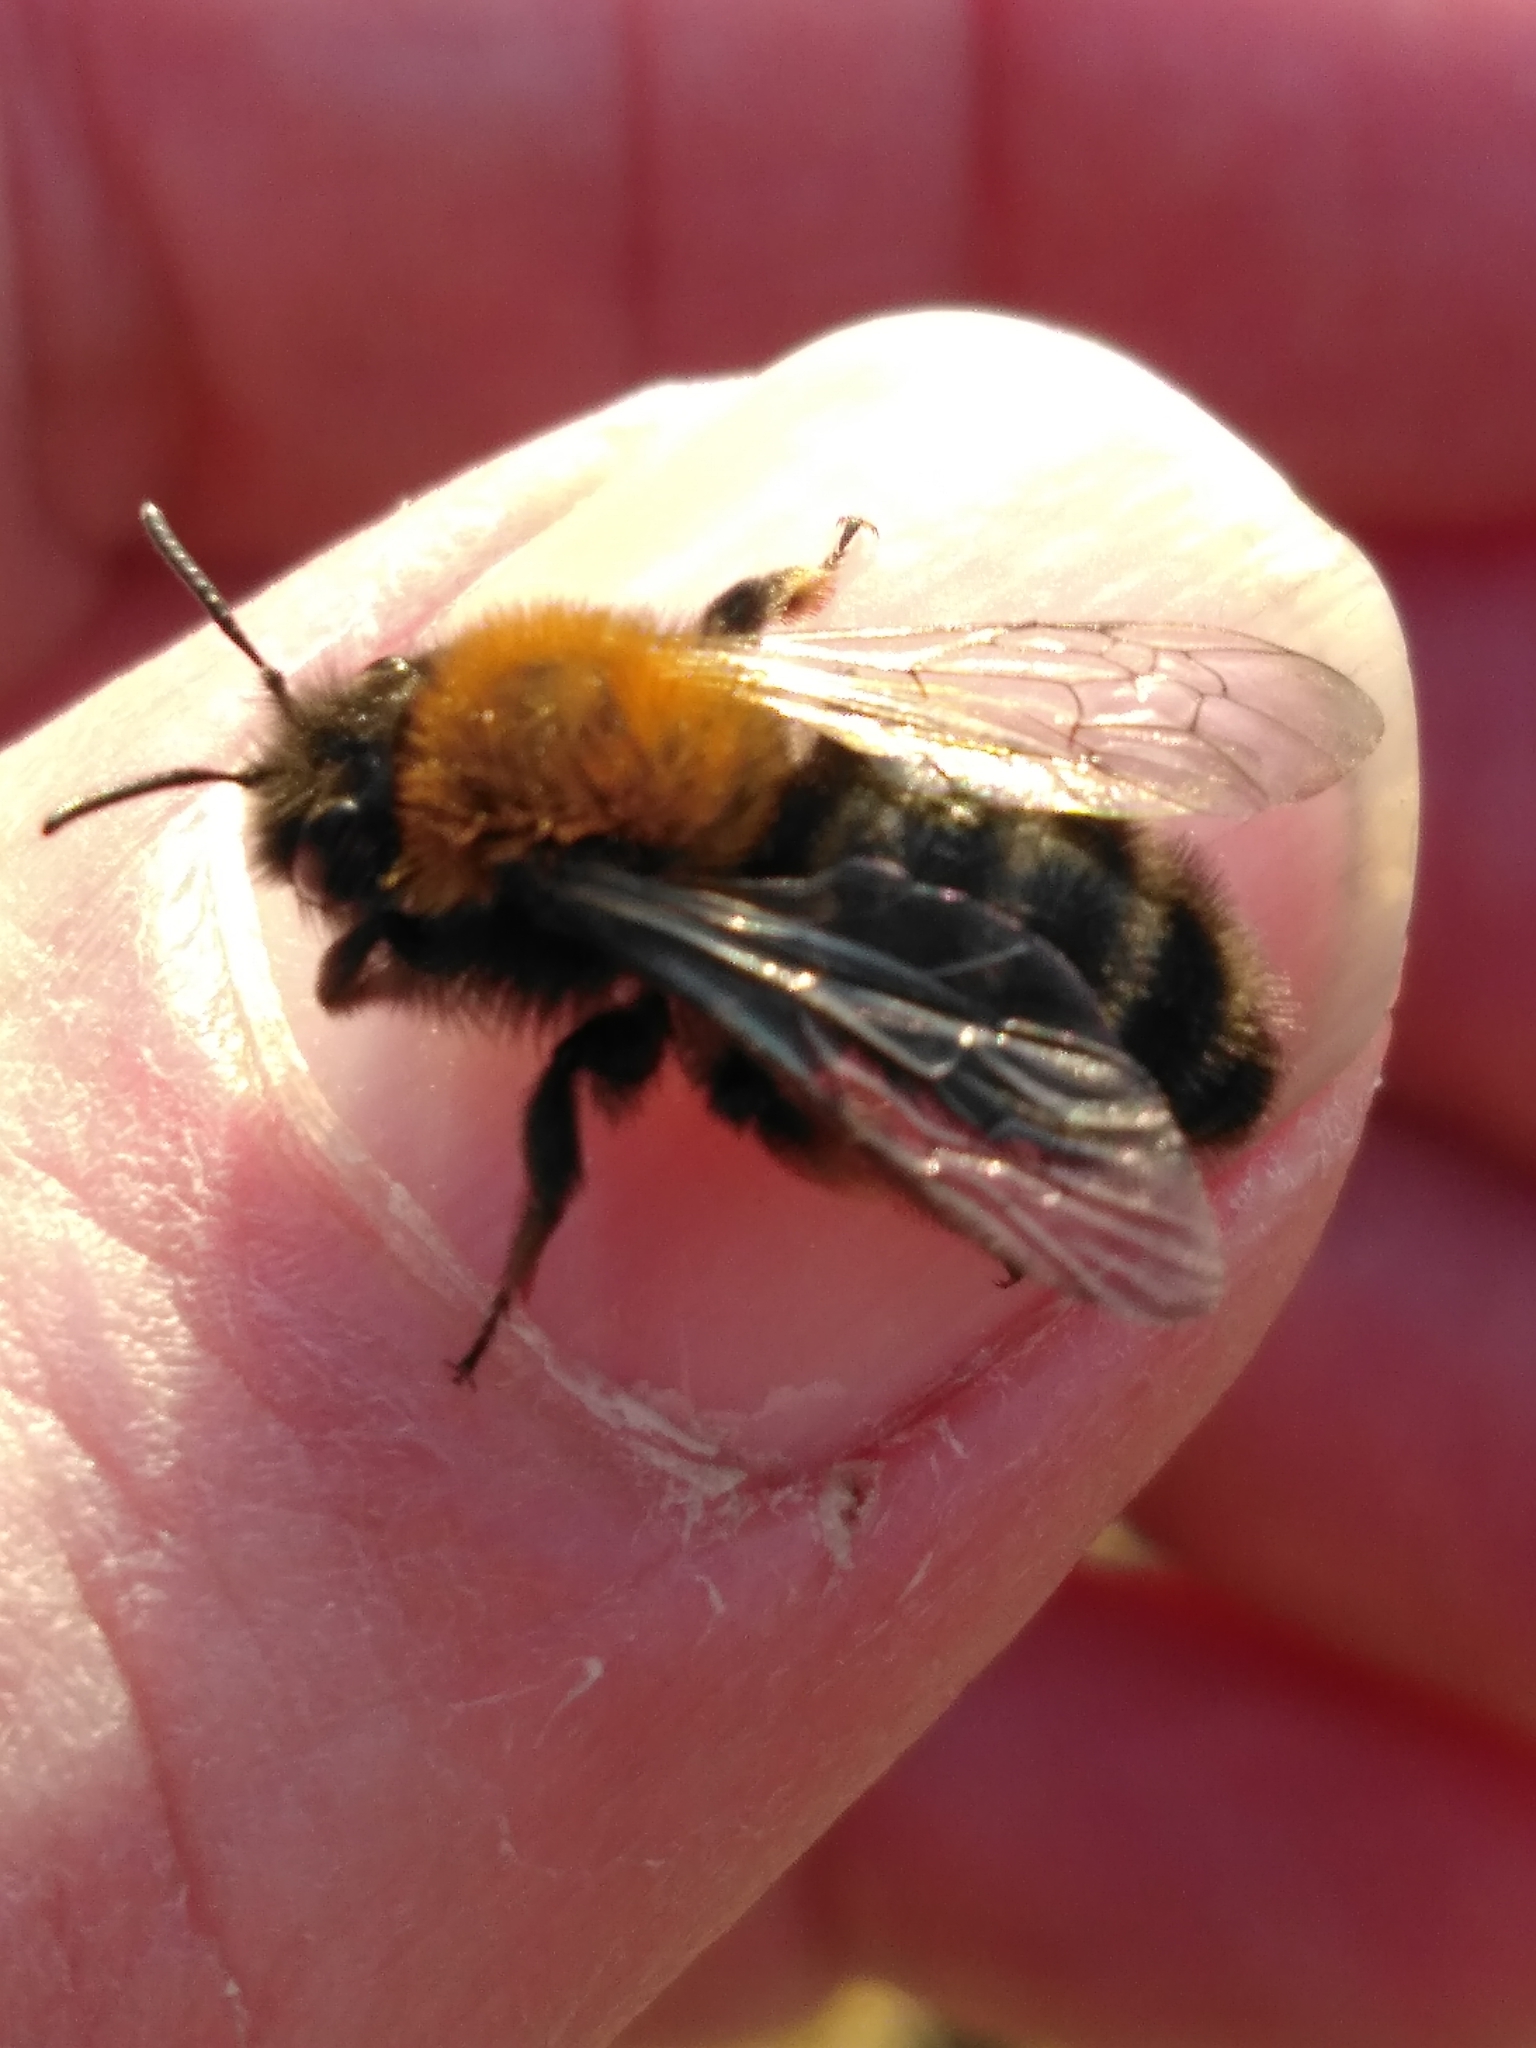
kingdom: Animalia
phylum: Arthropoda
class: Insecta
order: Hymenoptera
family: Andrenidae
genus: Andrena
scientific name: Andrena clarkella
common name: Clarke's mining bee
